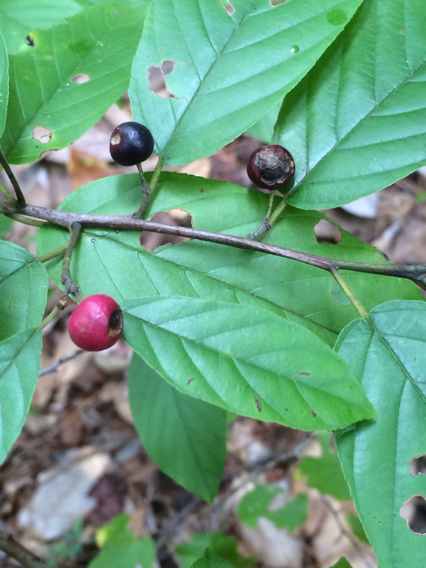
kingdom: Plantae
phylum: Tracheophyta
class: Magnoliopsida
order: Rosales
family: Rhamnaceae
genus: Frangula
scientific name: Frangula caroliniana
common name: Carolina buckthorn
